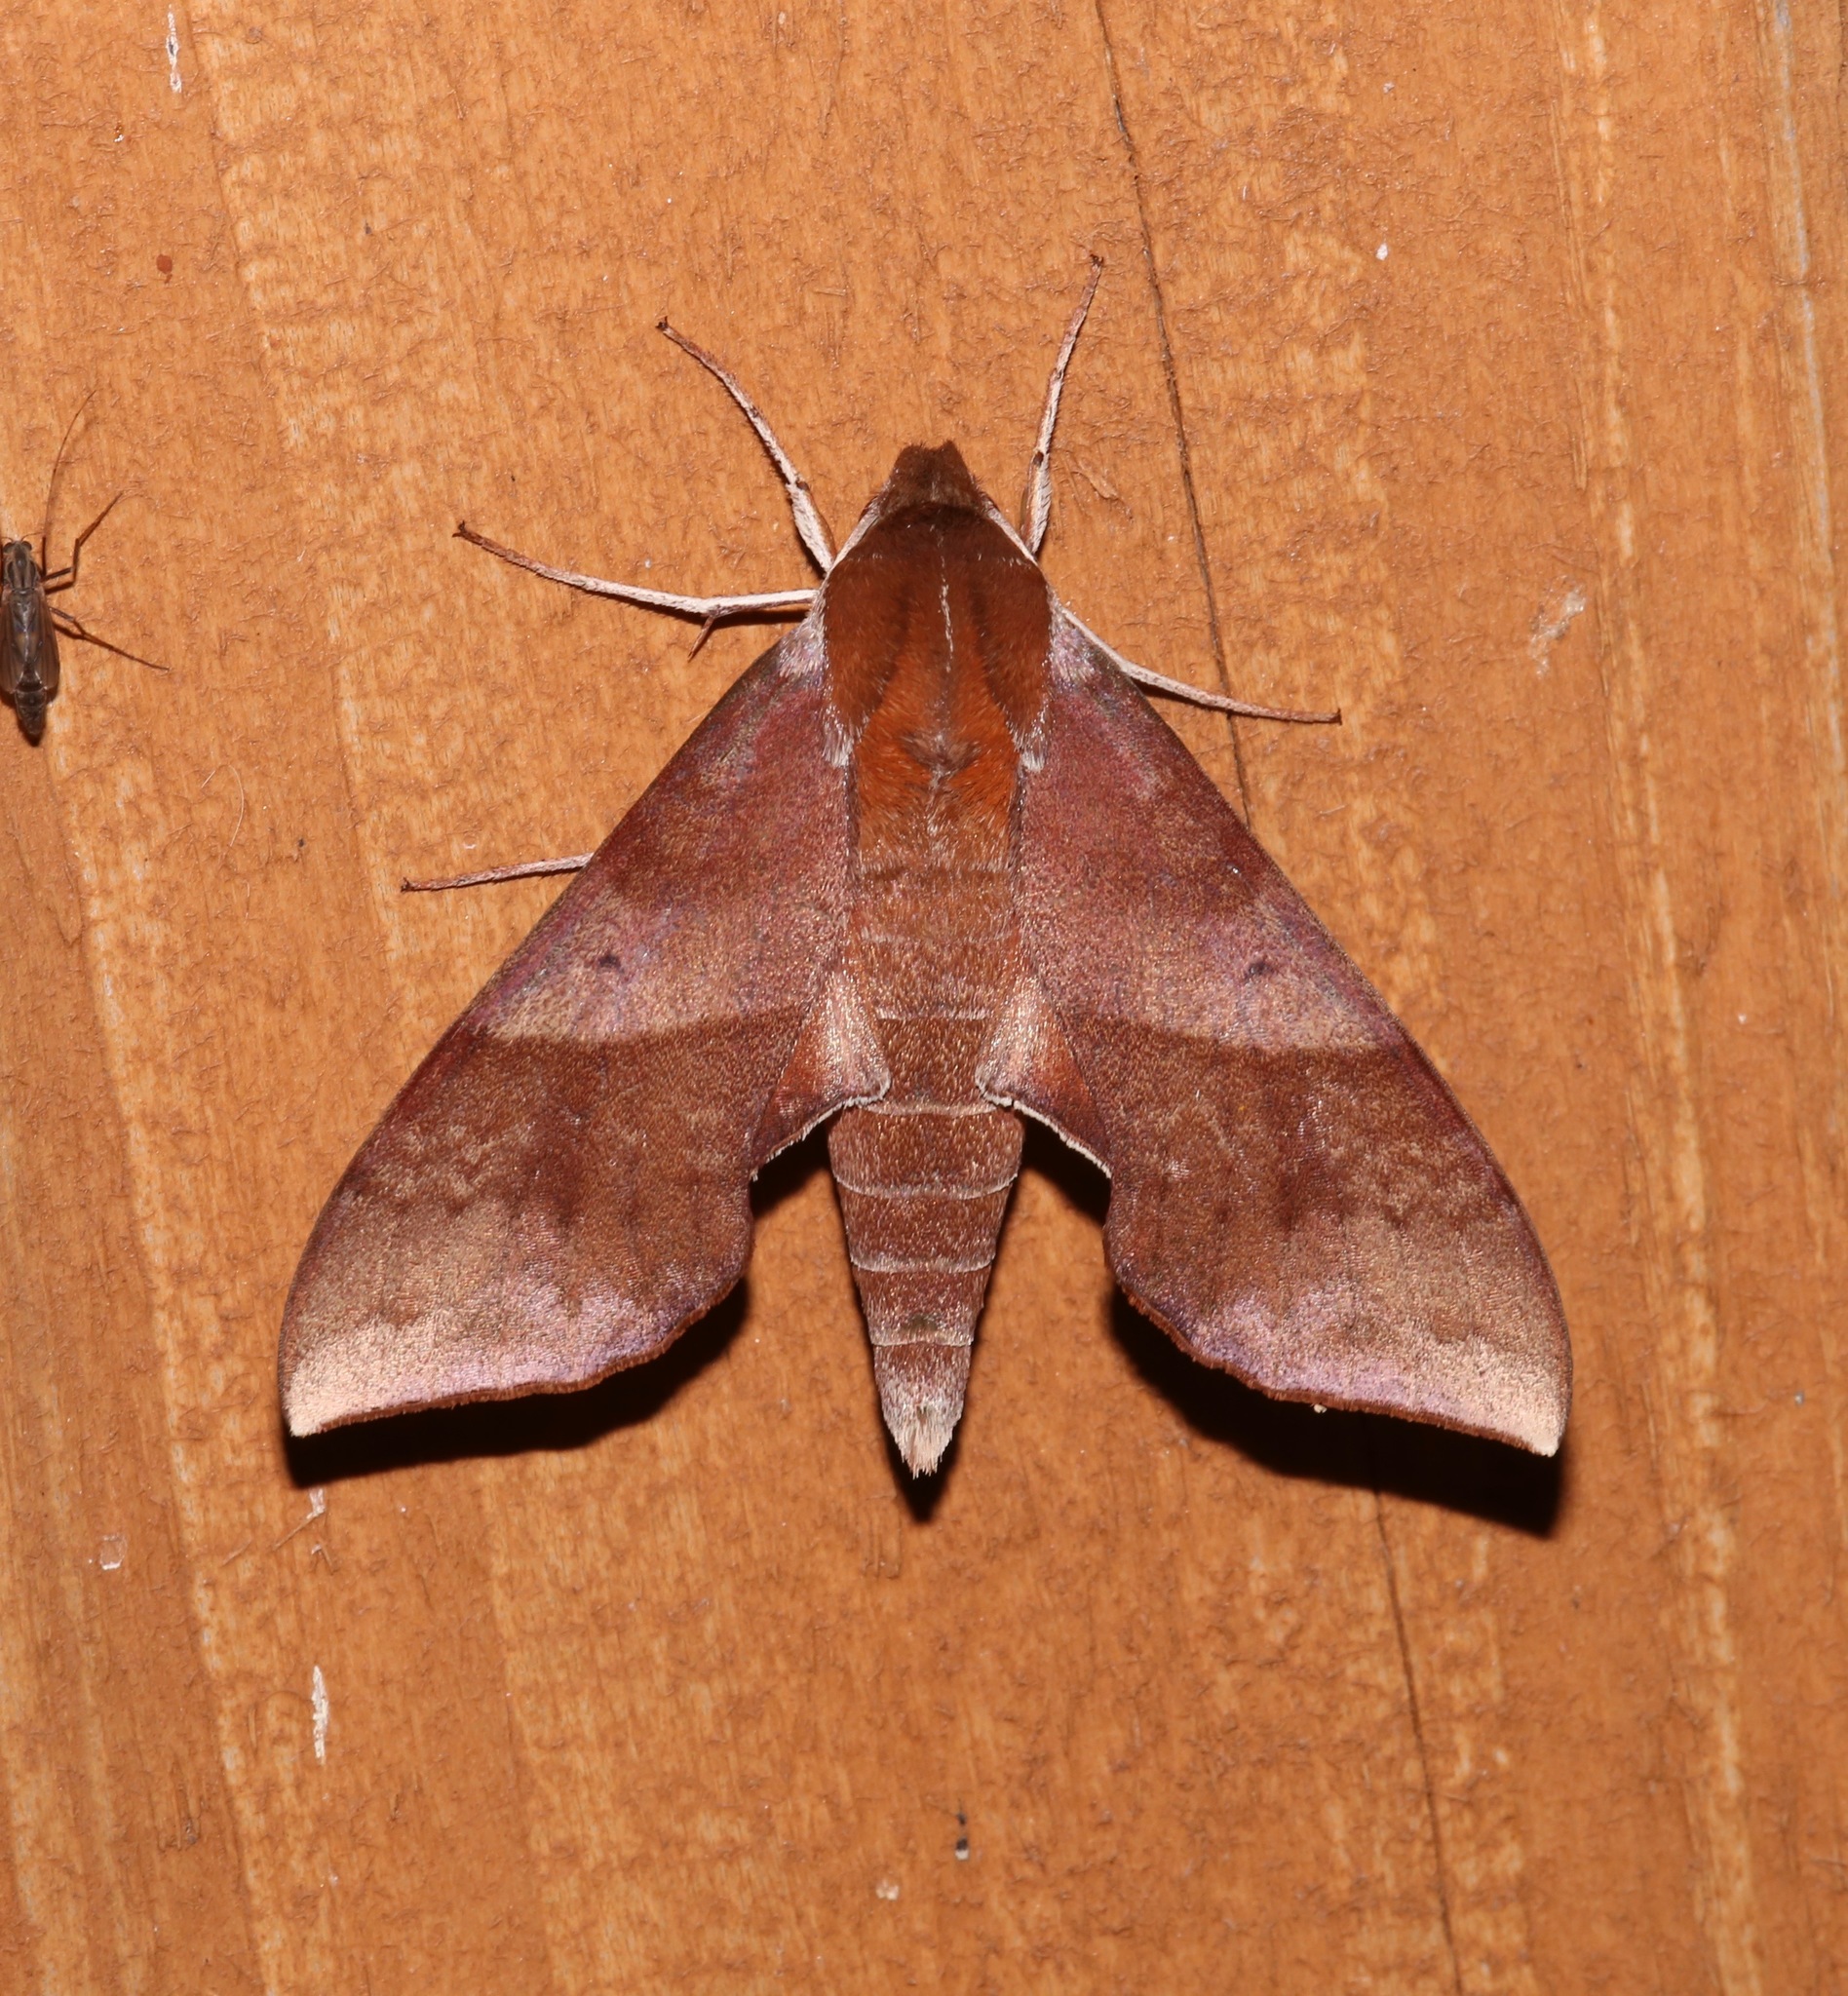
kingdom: Animalia
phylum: Arthropoda
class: Insecta
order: Lepidoptera
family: Sphingidae
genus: Darapsa
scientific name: Darapsa choerilus
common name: Azalea sphinx
